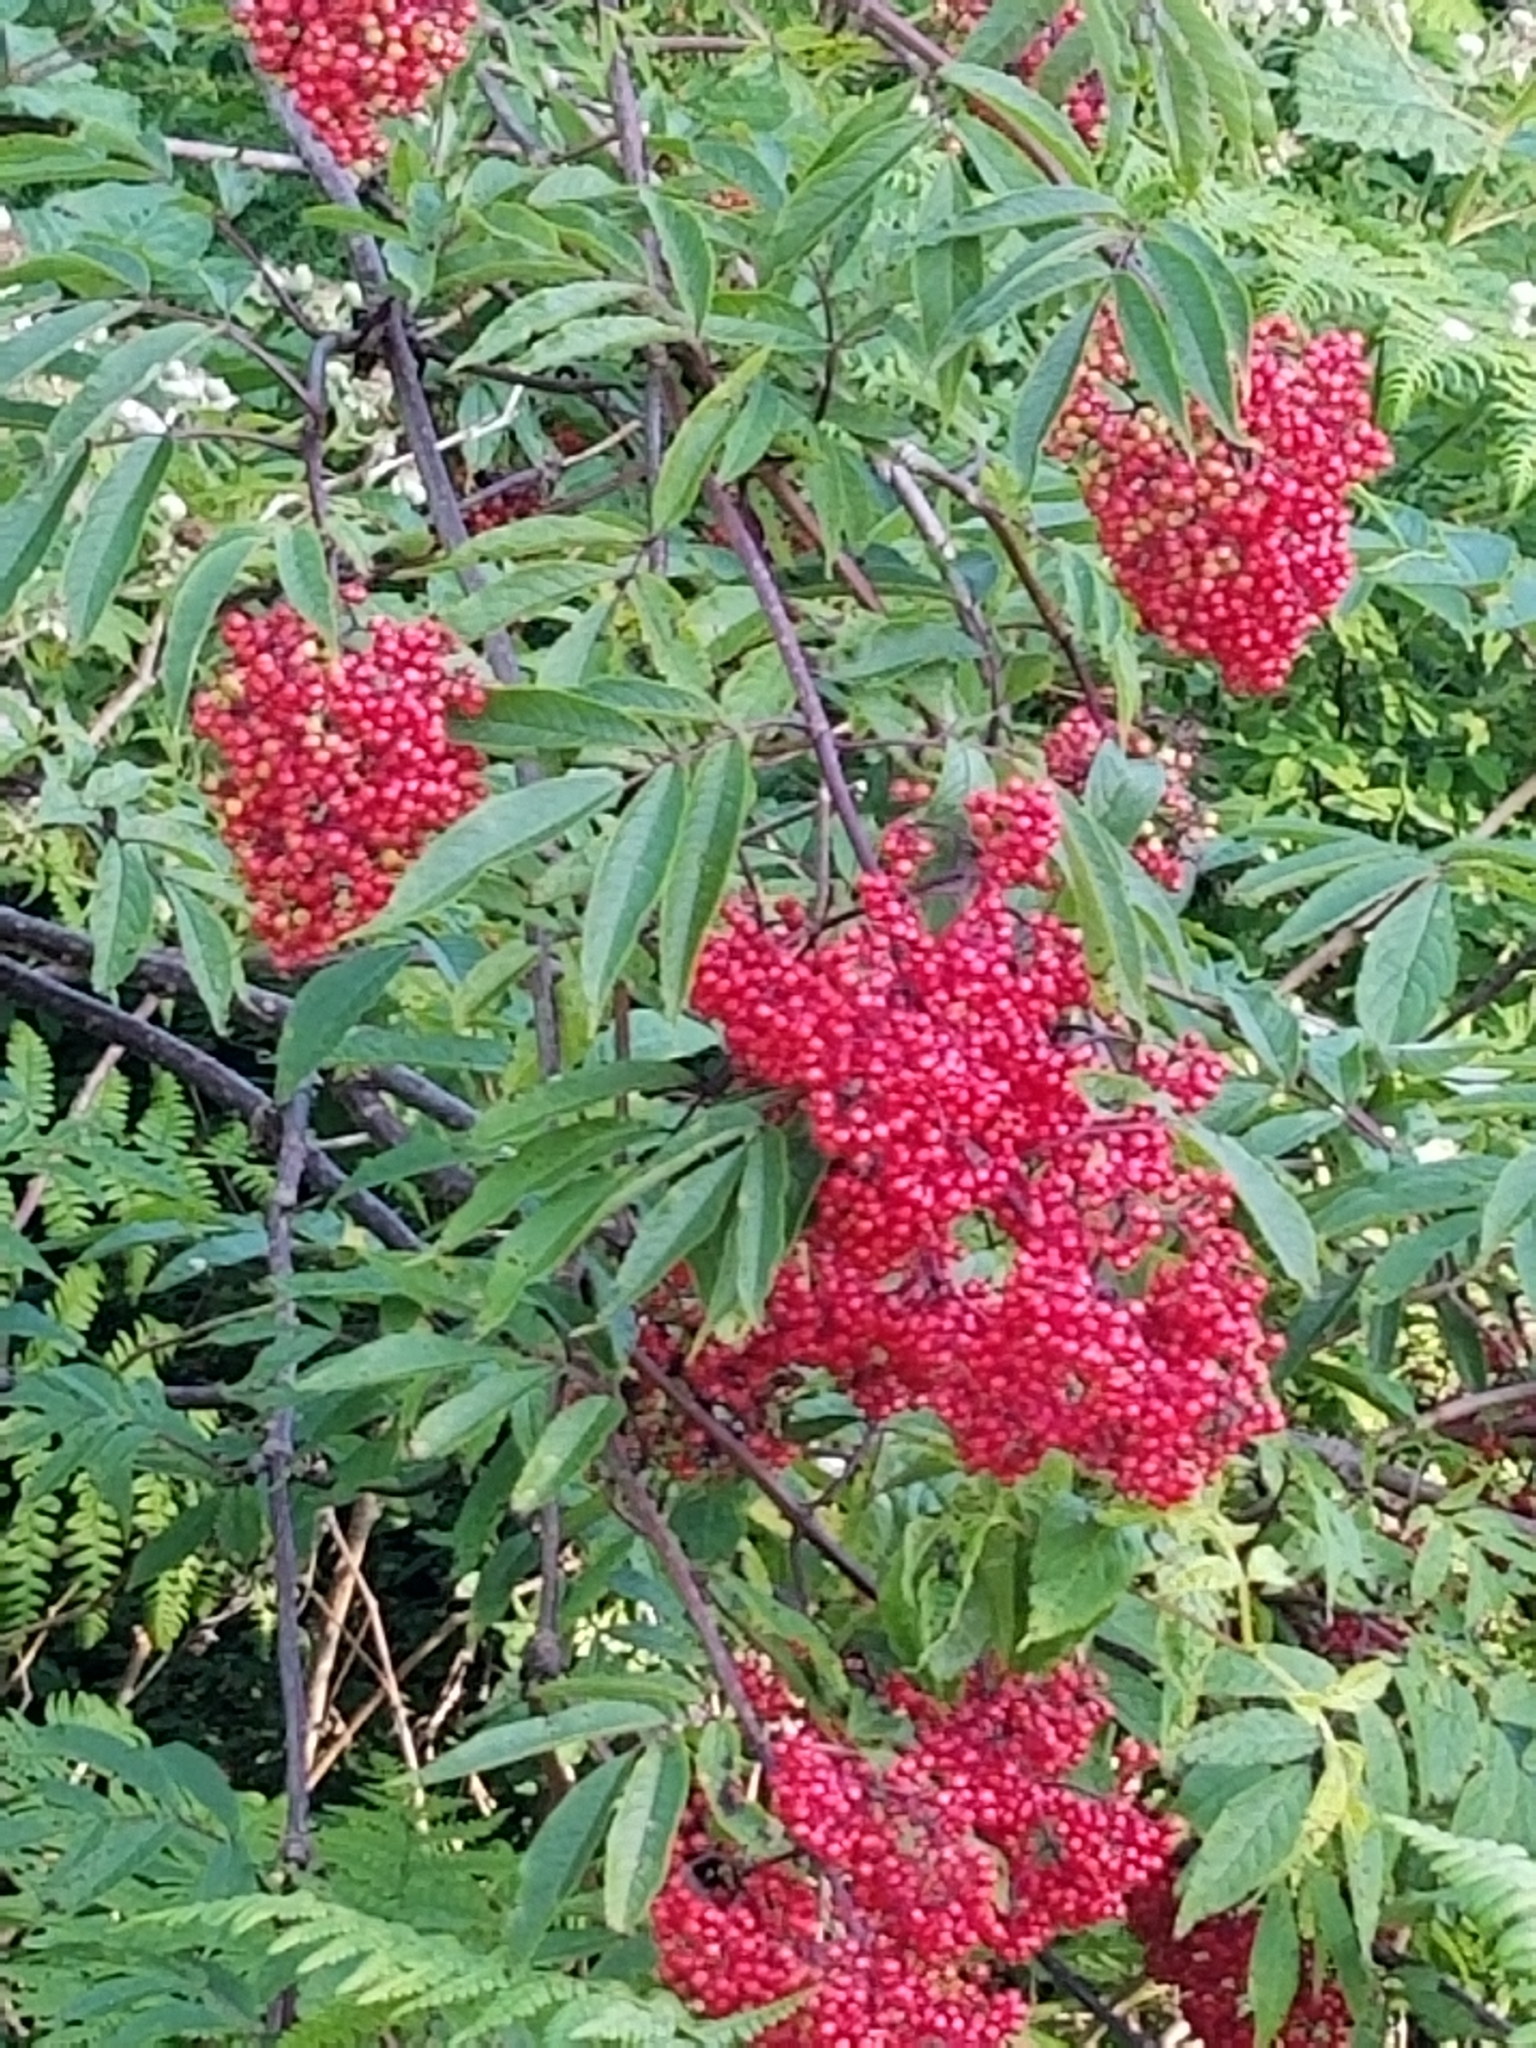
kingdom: Plantae
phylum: Tracheophyta
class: Magnoliopsida
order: Dipsacales
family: Viburnaceae
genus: Sambucus
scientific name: Sambucus racemosa
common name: Red-berried elder
